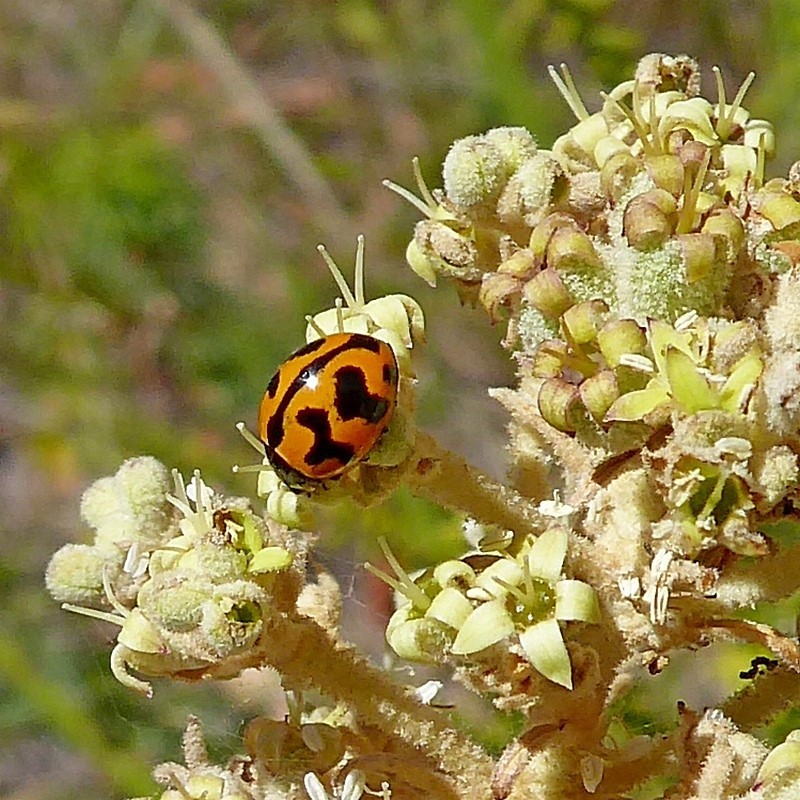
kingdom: Animalia
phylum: Arthropoda
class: Insecta
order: Coleoptera
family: Coccinellidae
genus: Coccinella
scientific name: Coccinella transversalis
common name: Transverse lady beetle
